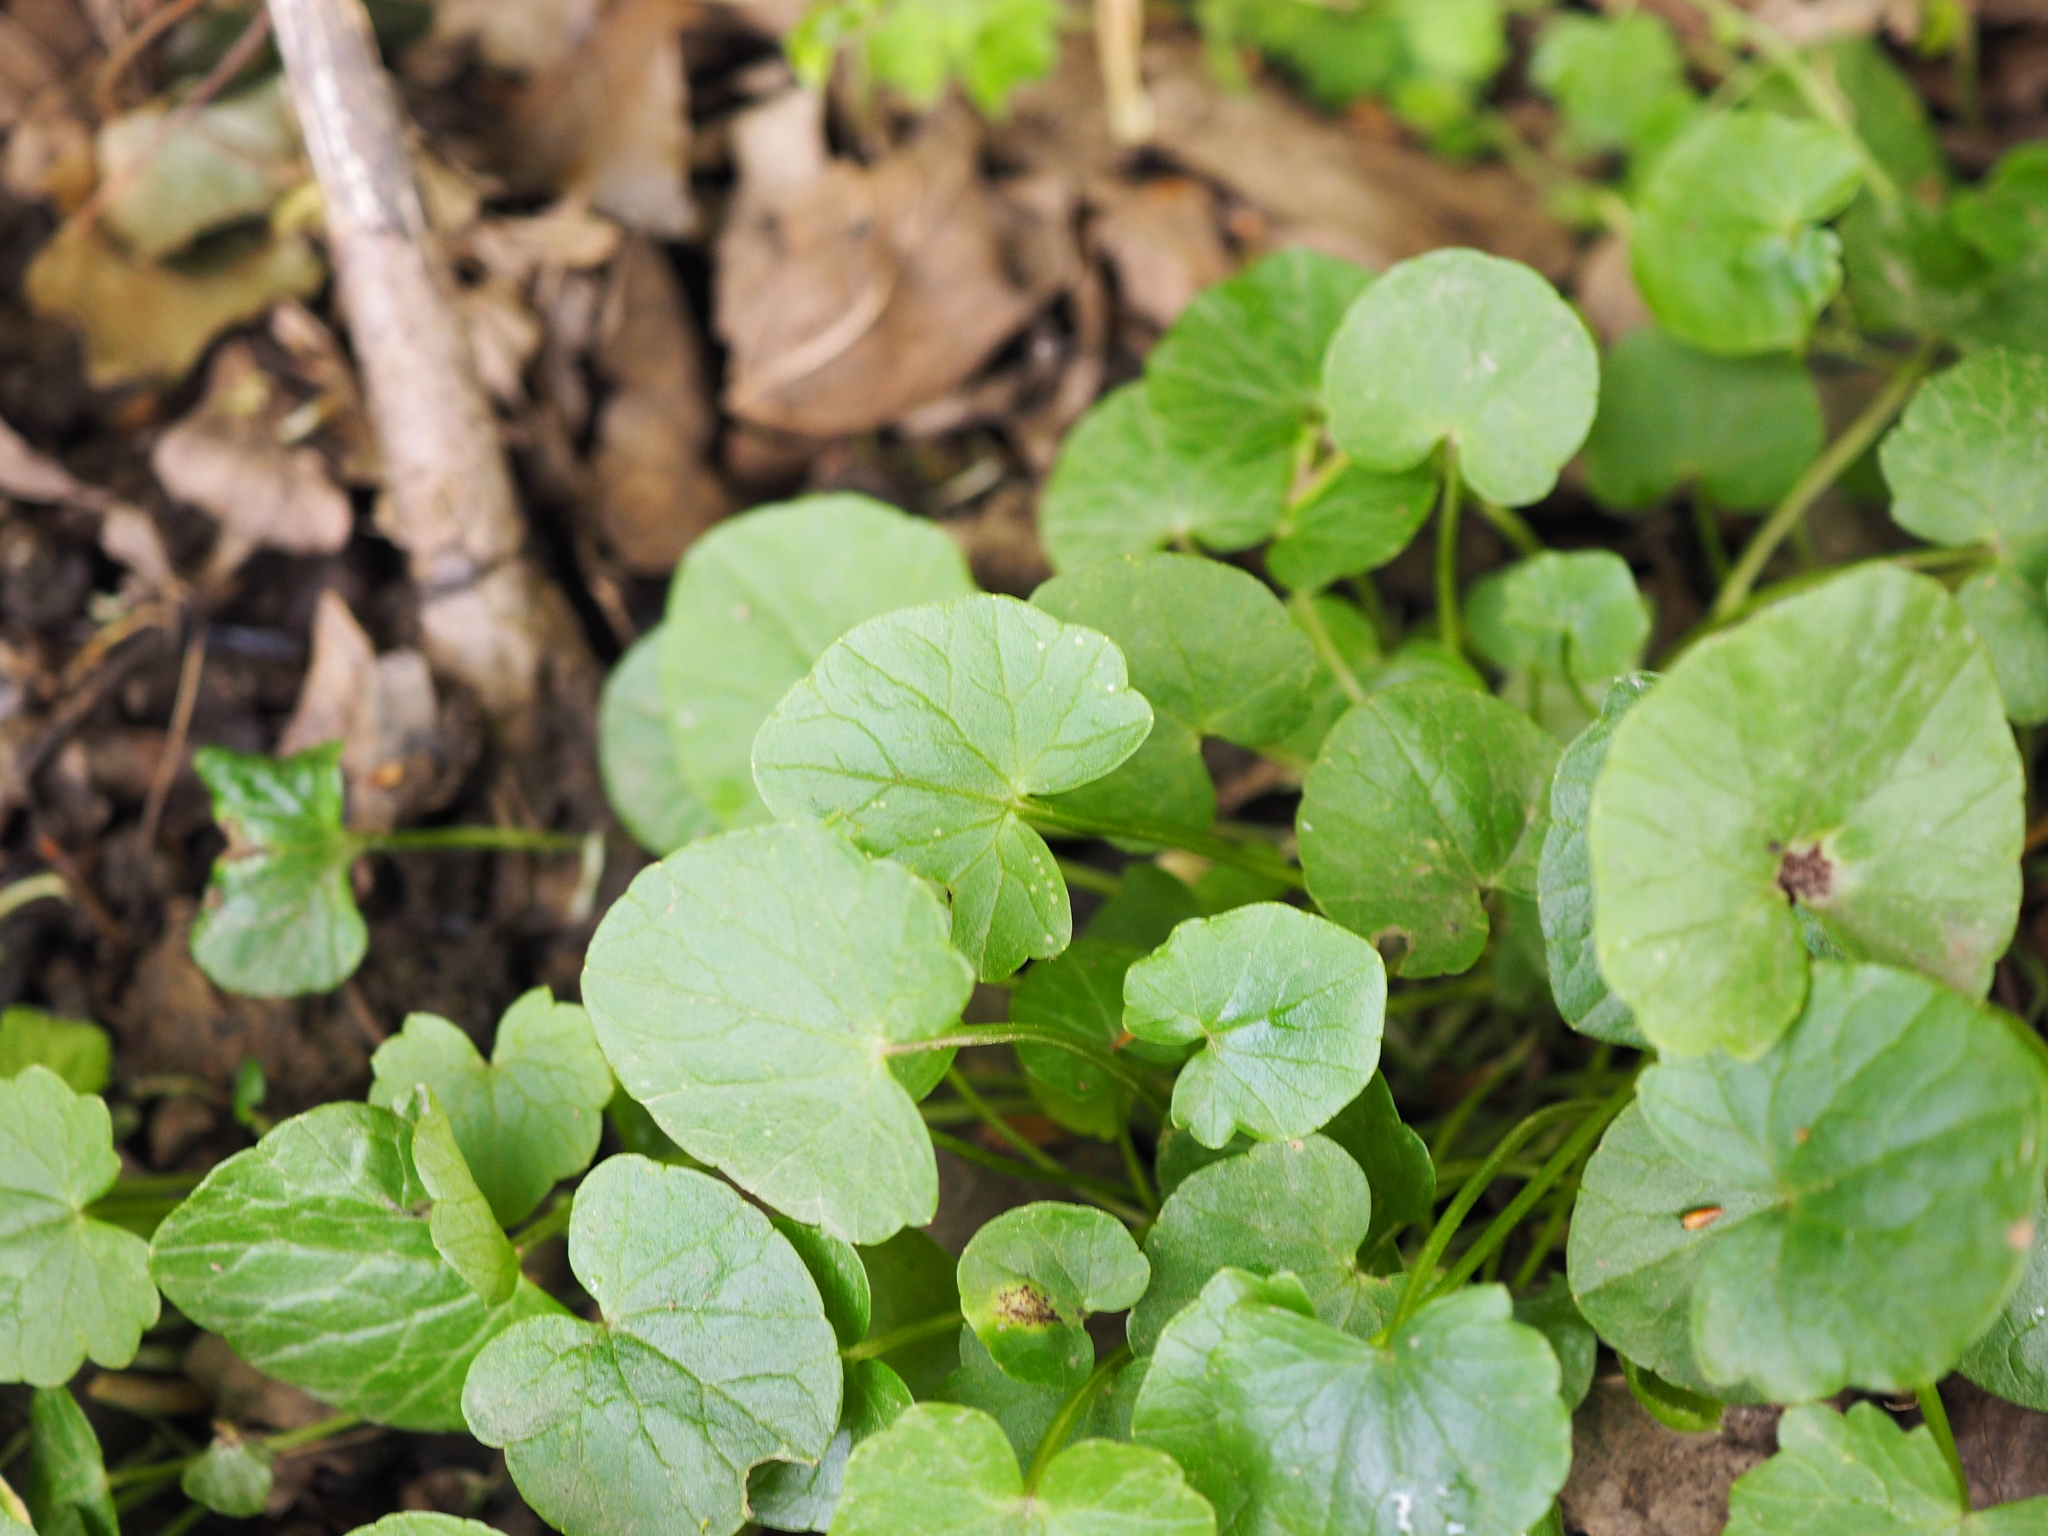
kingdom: Plantae
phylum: Tracheophyta
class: Magnoliopsida
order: Ranunculales
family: Ranunculaceae
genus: Ficaria
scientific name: Ficaria verna
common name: Lesser celandine
